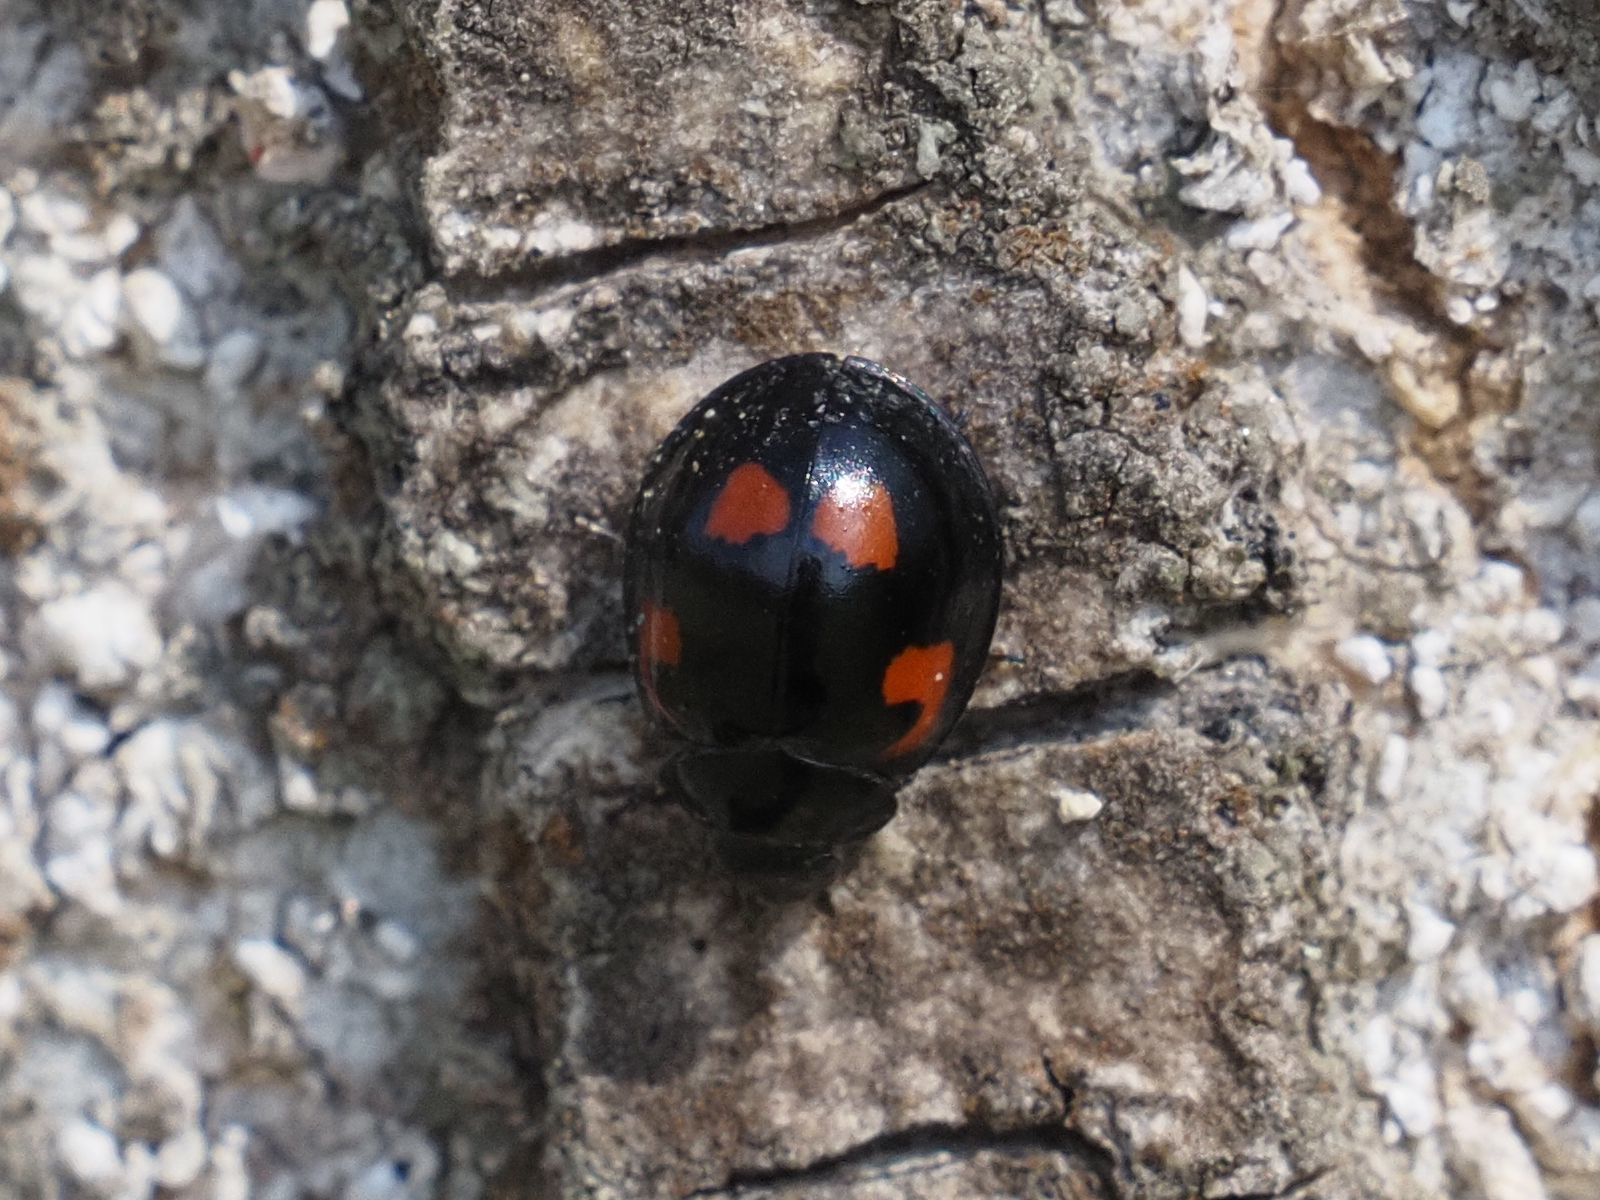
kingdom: Animalia
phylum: Arthropoda
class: Insecta
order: Coleoptera
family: Coccinellidae
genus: Brumus
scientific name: Brumus quadripustulatus
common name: Ladybird beetle
